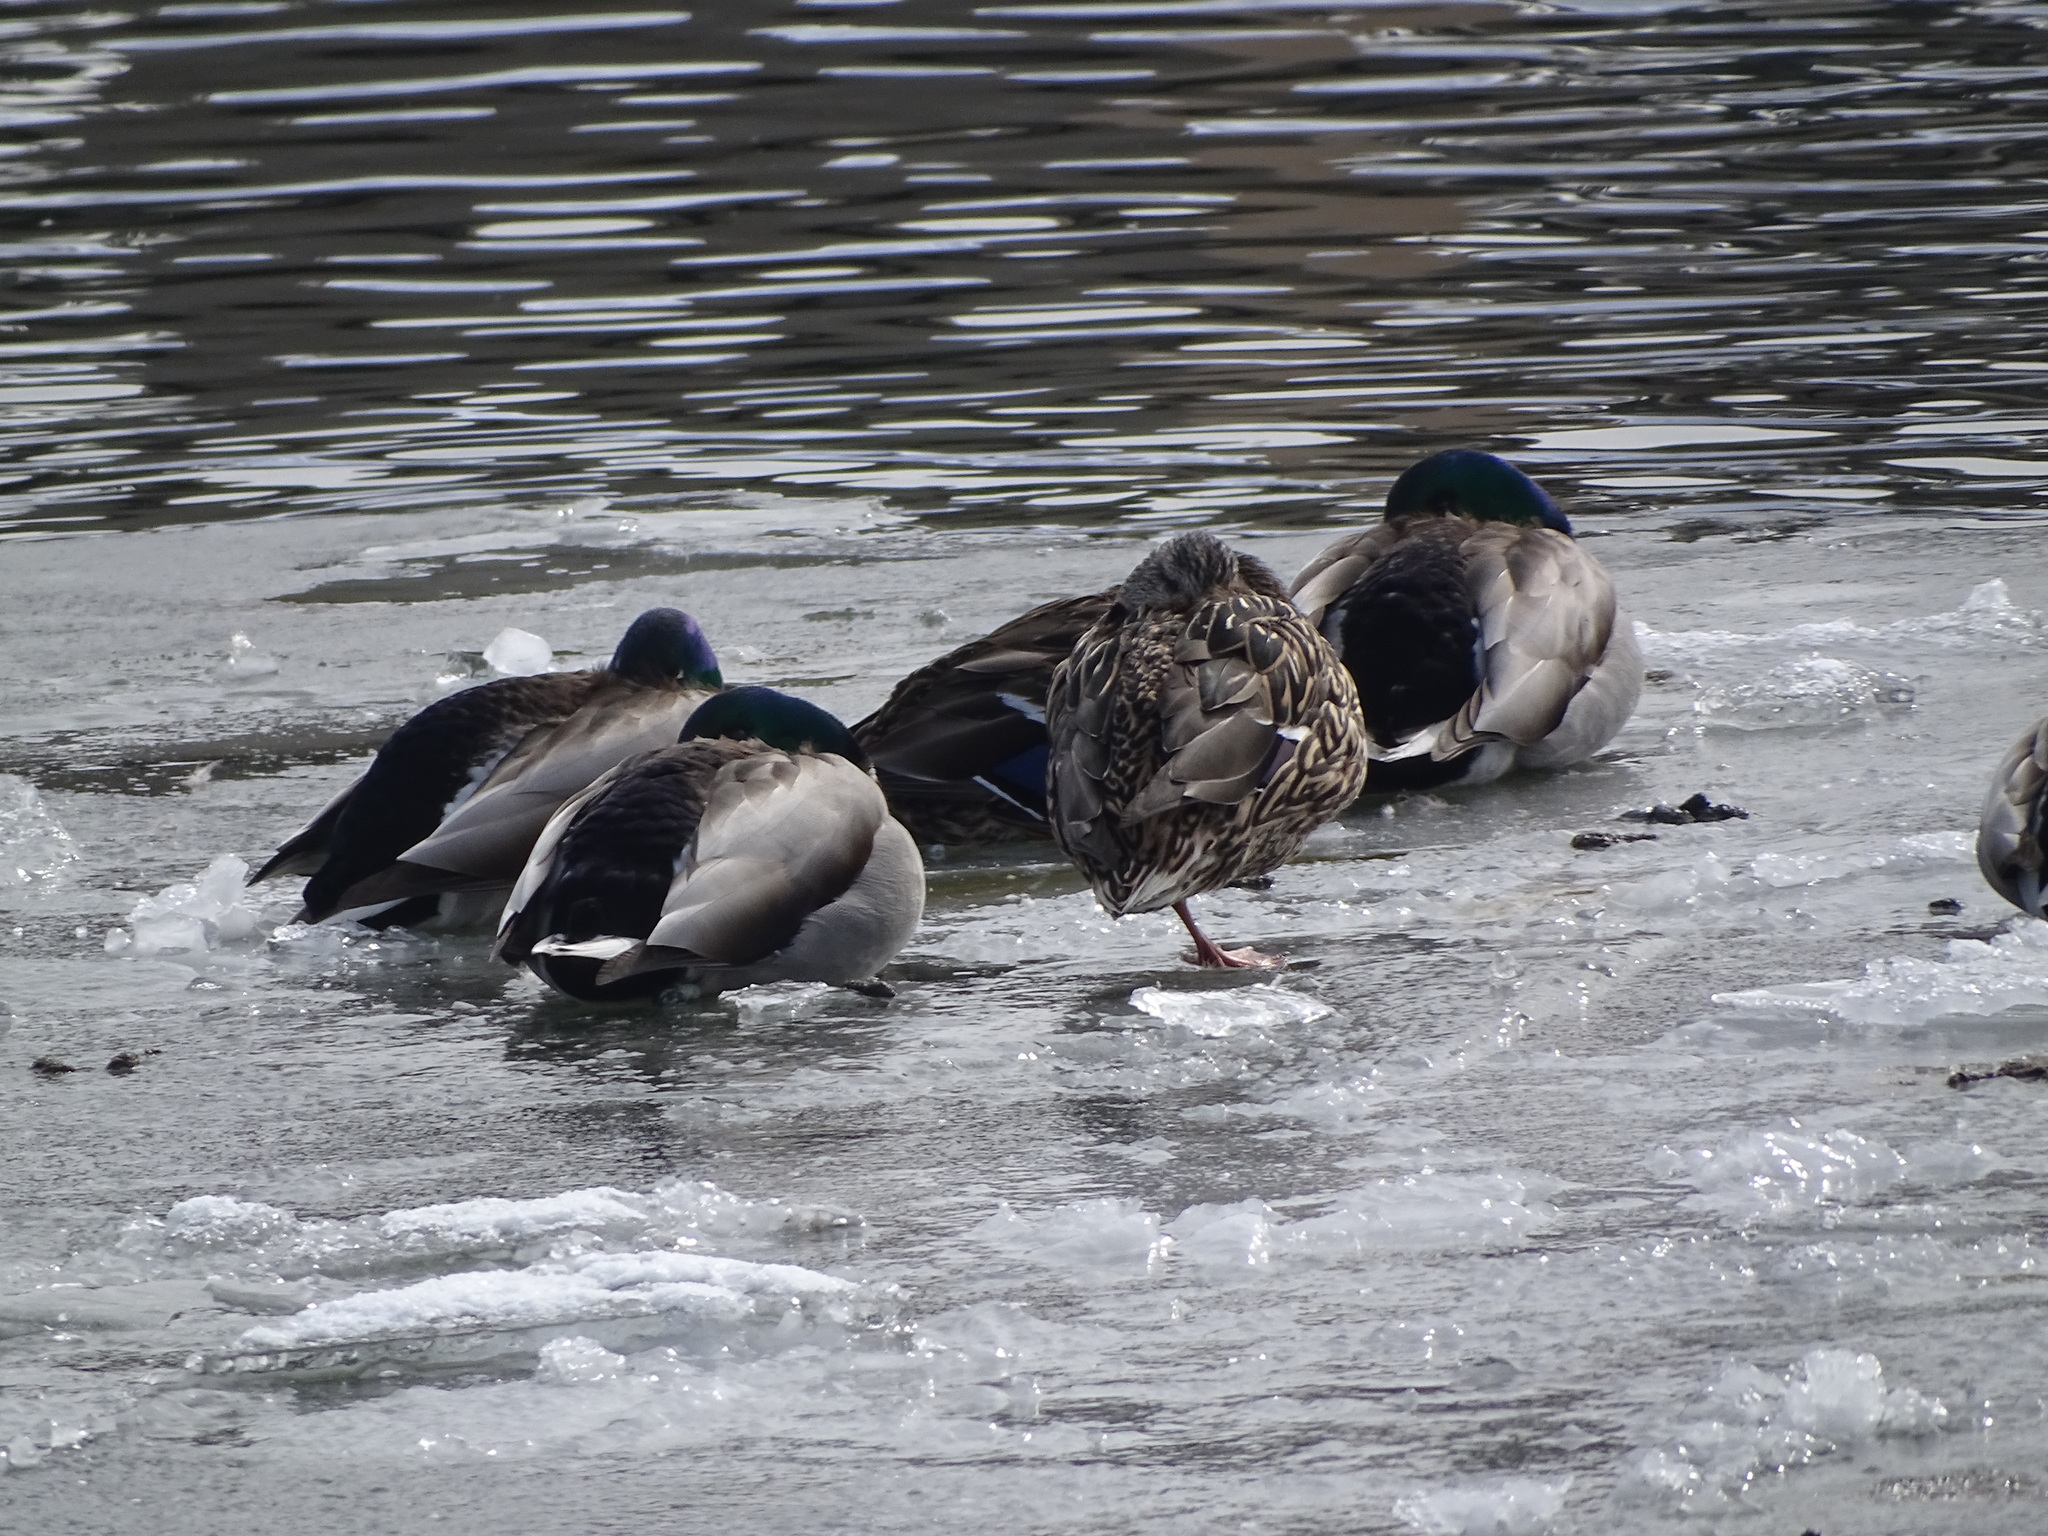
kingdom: Animalia
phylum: Chordata
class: Aves
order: Anseriformes
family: Anatidae
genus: Anas
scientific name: Anas platyrhynchos
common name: Mallard
